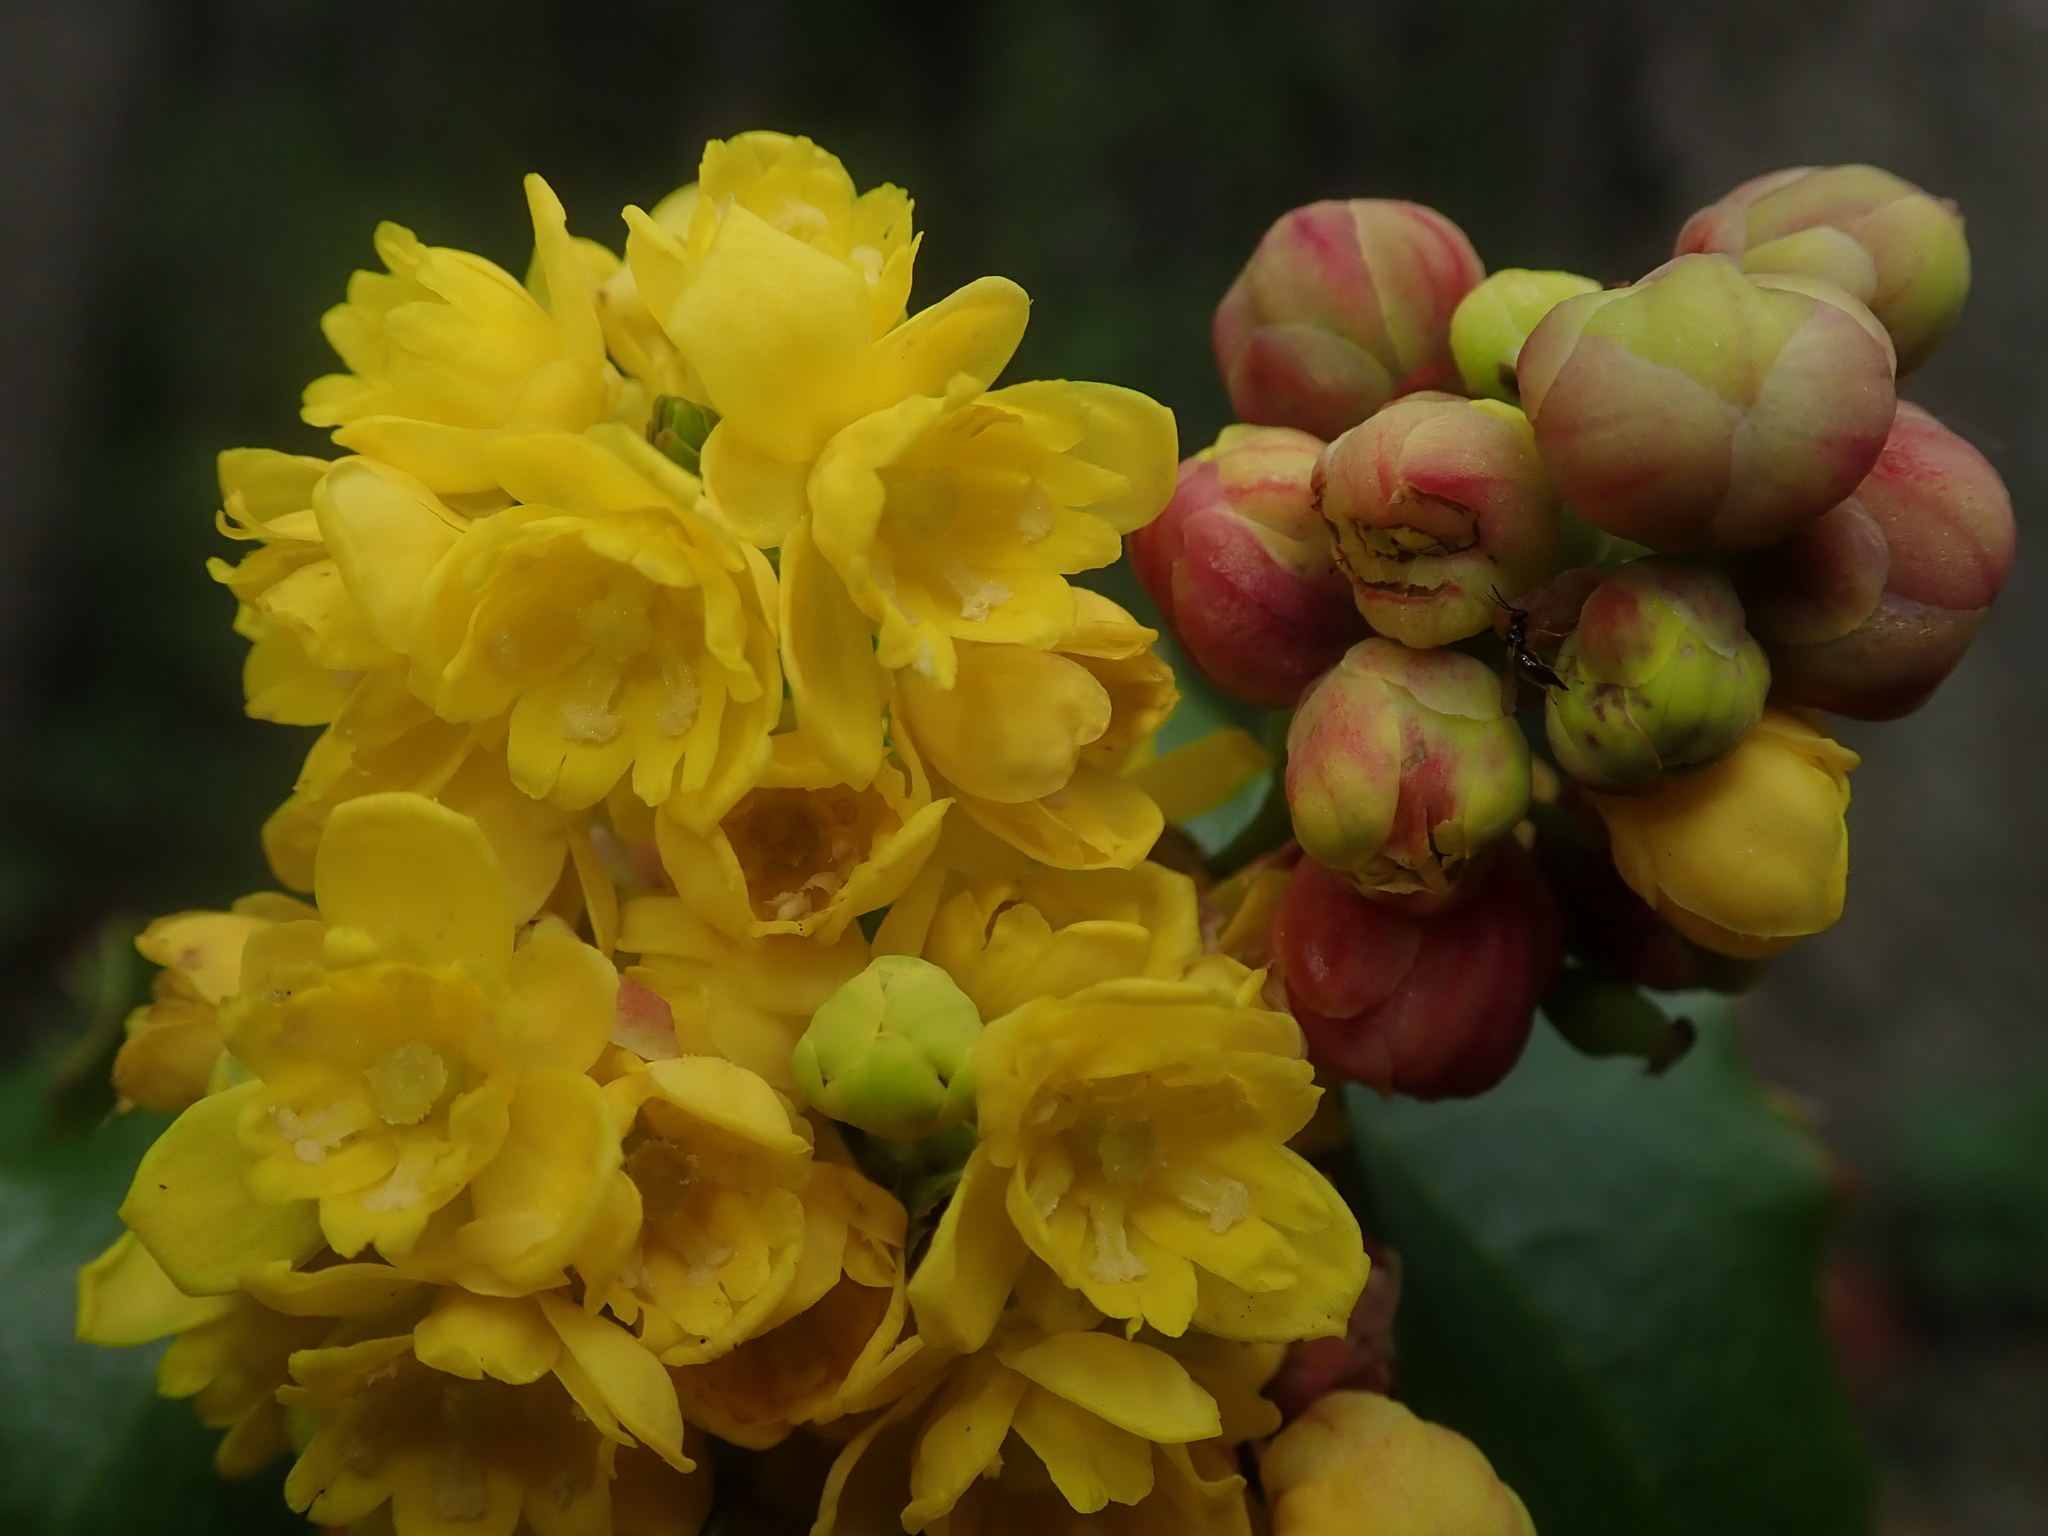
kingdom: Plantae
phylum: Tracheophyta
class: Magnoliopsida
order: Ranunculales
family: Berberidaceae
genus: Mahonia
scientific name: Mahonia aquifolium
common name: Oregon-grape
